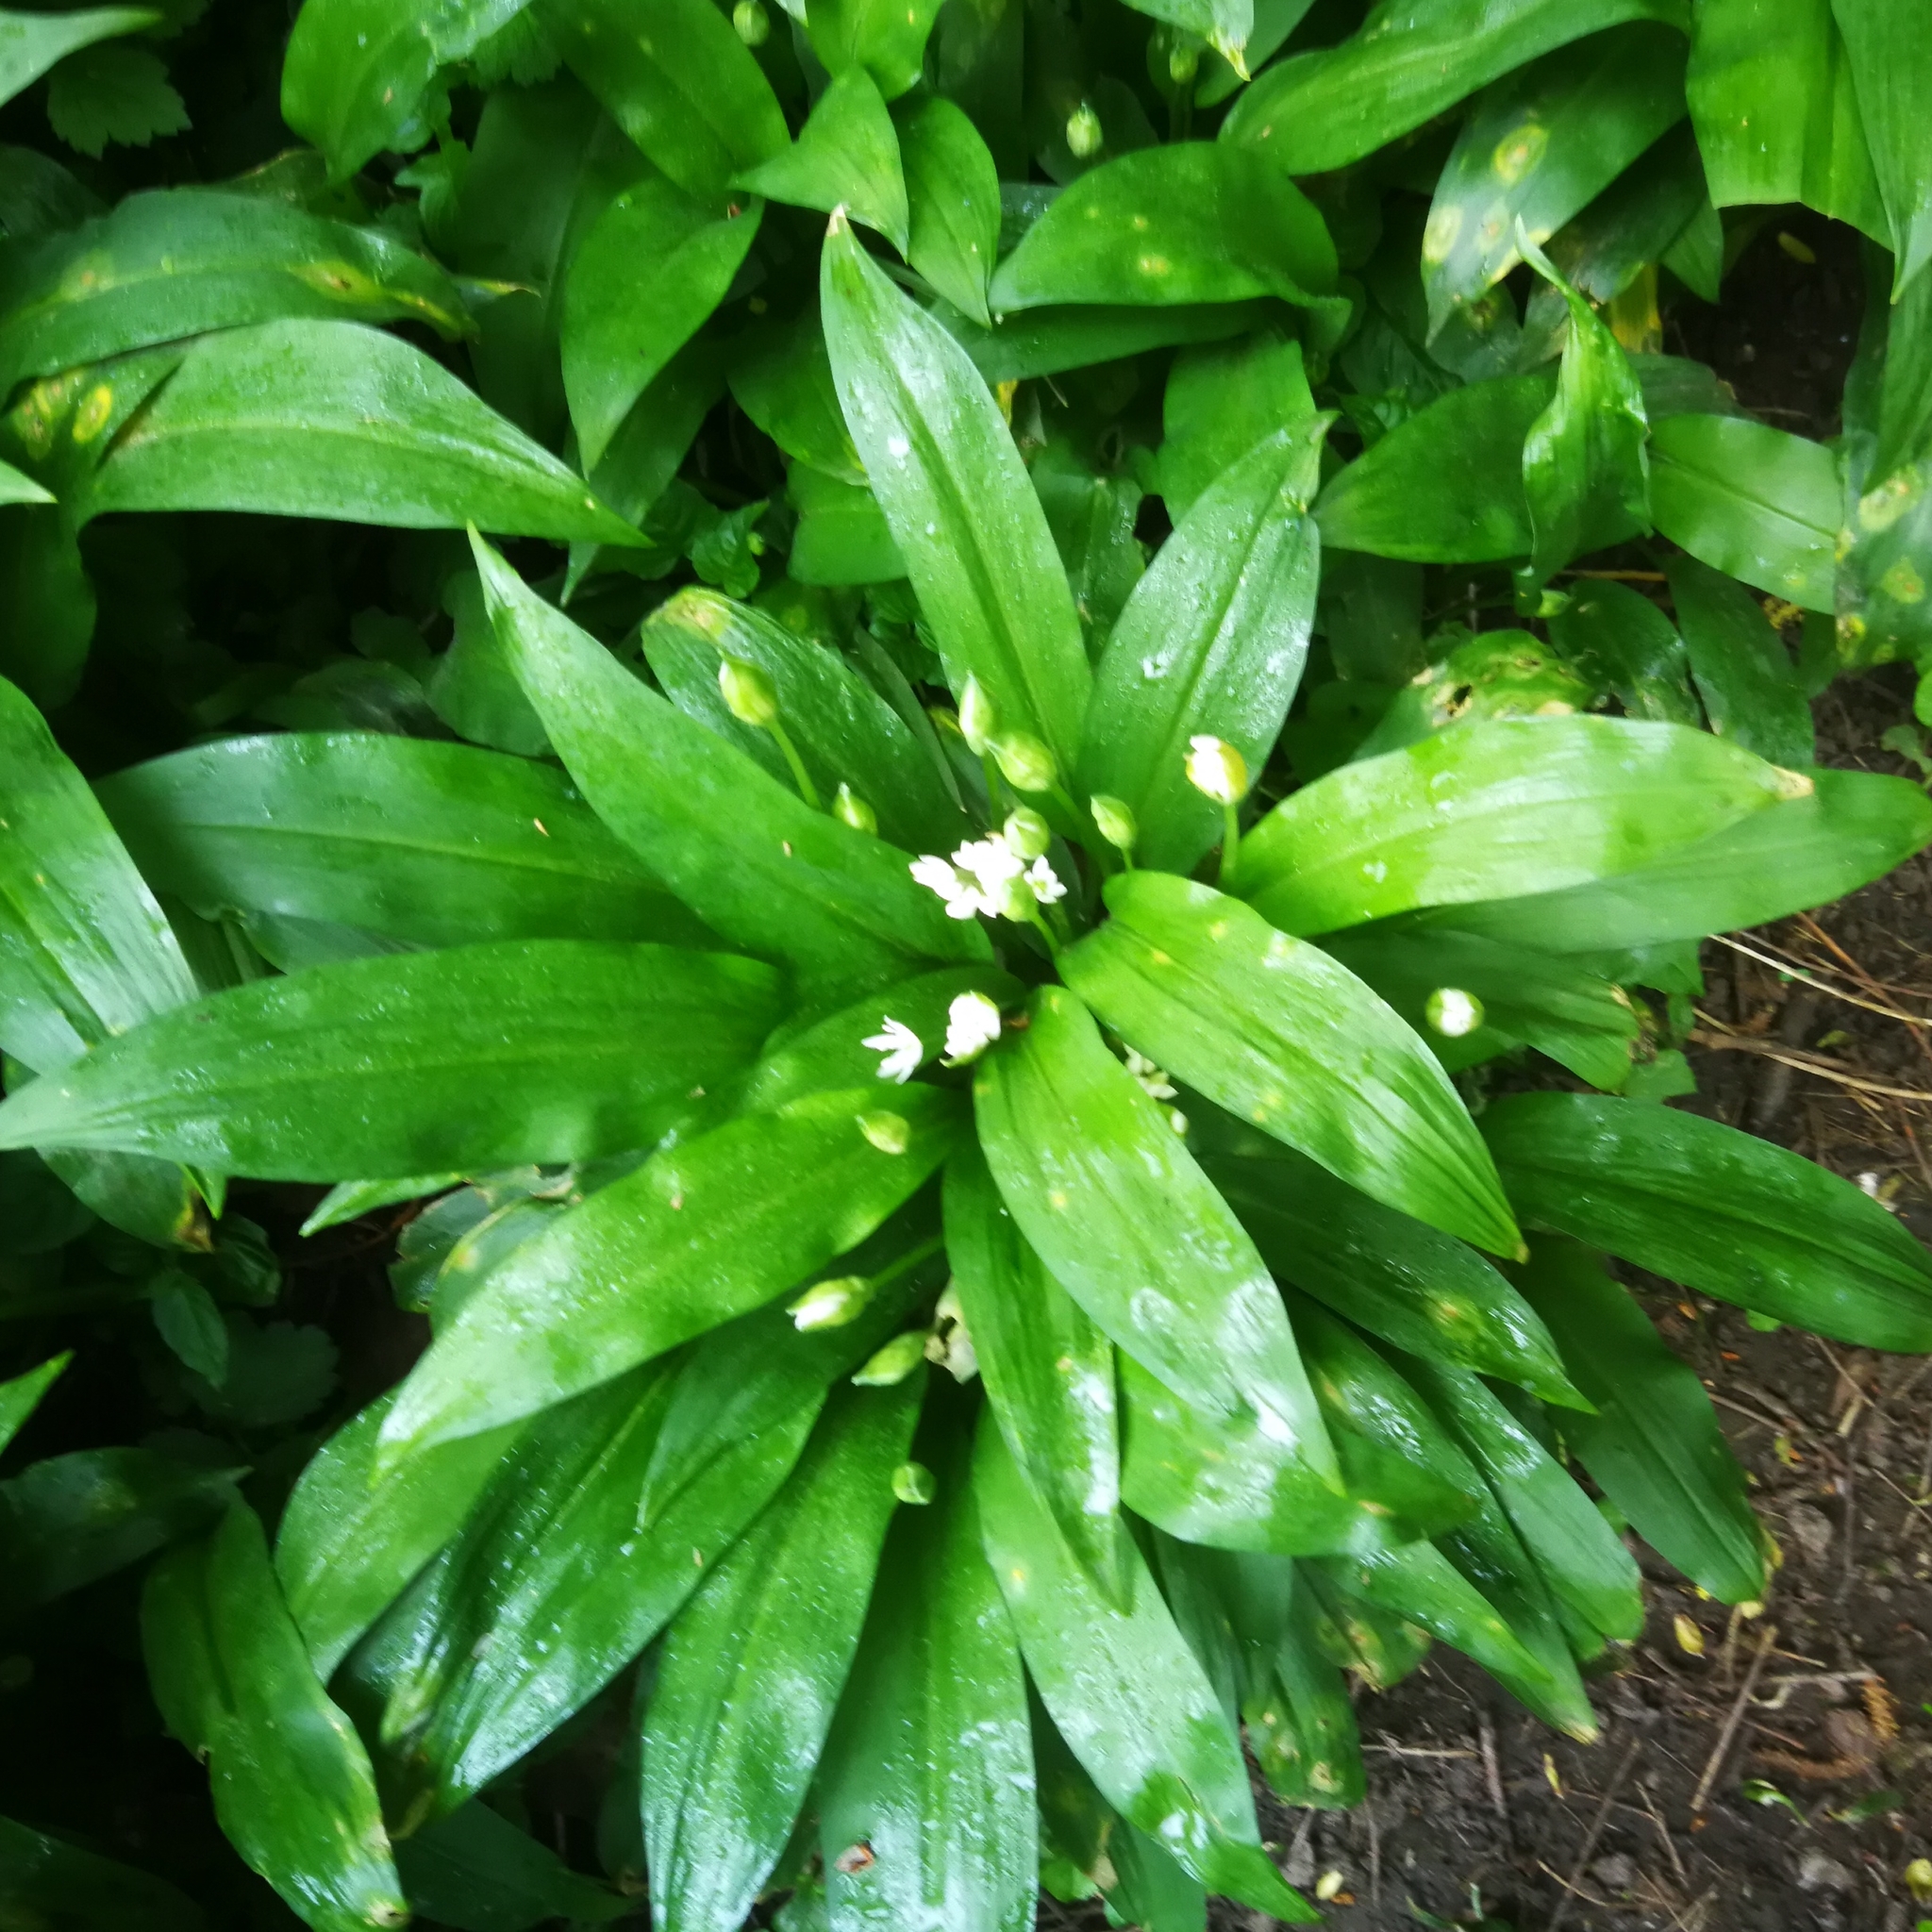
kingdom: Plantae
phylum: Tracheophyta
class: Liliopsida
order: Asparagales
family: Amaryllidaceae
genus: Allium
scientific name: Allium ursinum
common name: Ramsons
